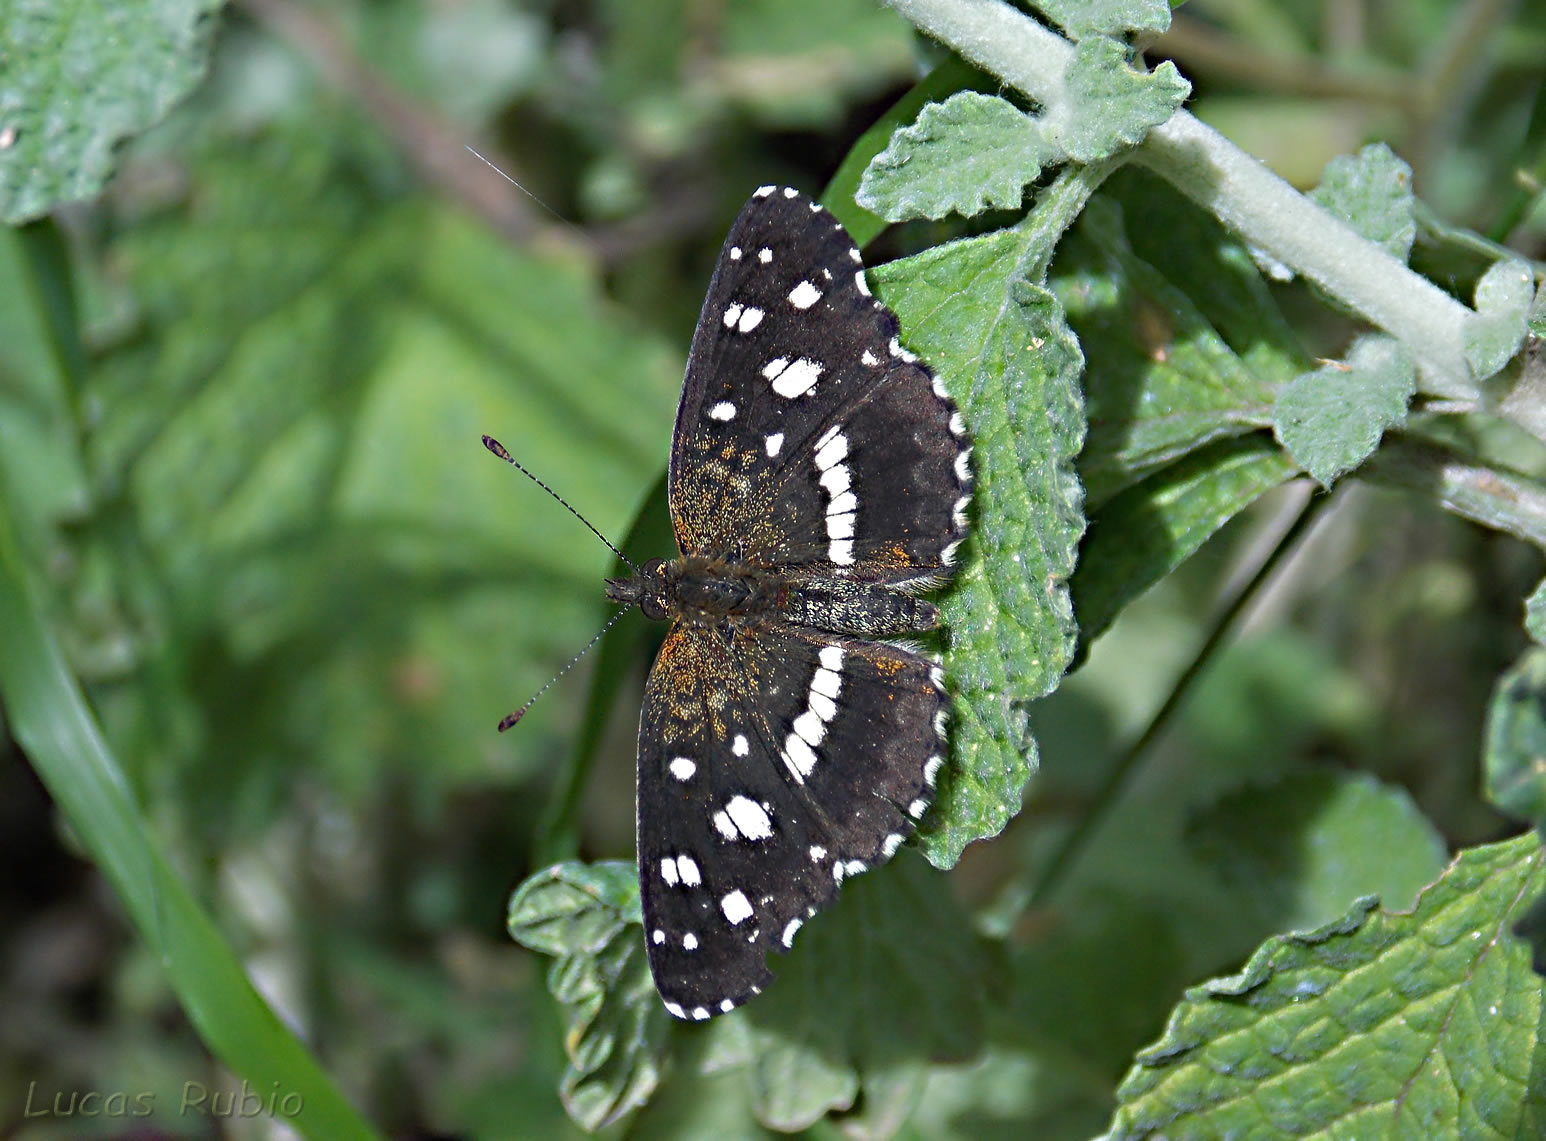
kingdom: Animalia
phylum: Arthropoda
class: Insecta
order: Lepidoptera
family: Nymphalidae
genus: Ortilia
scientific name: Ortilia ithra
